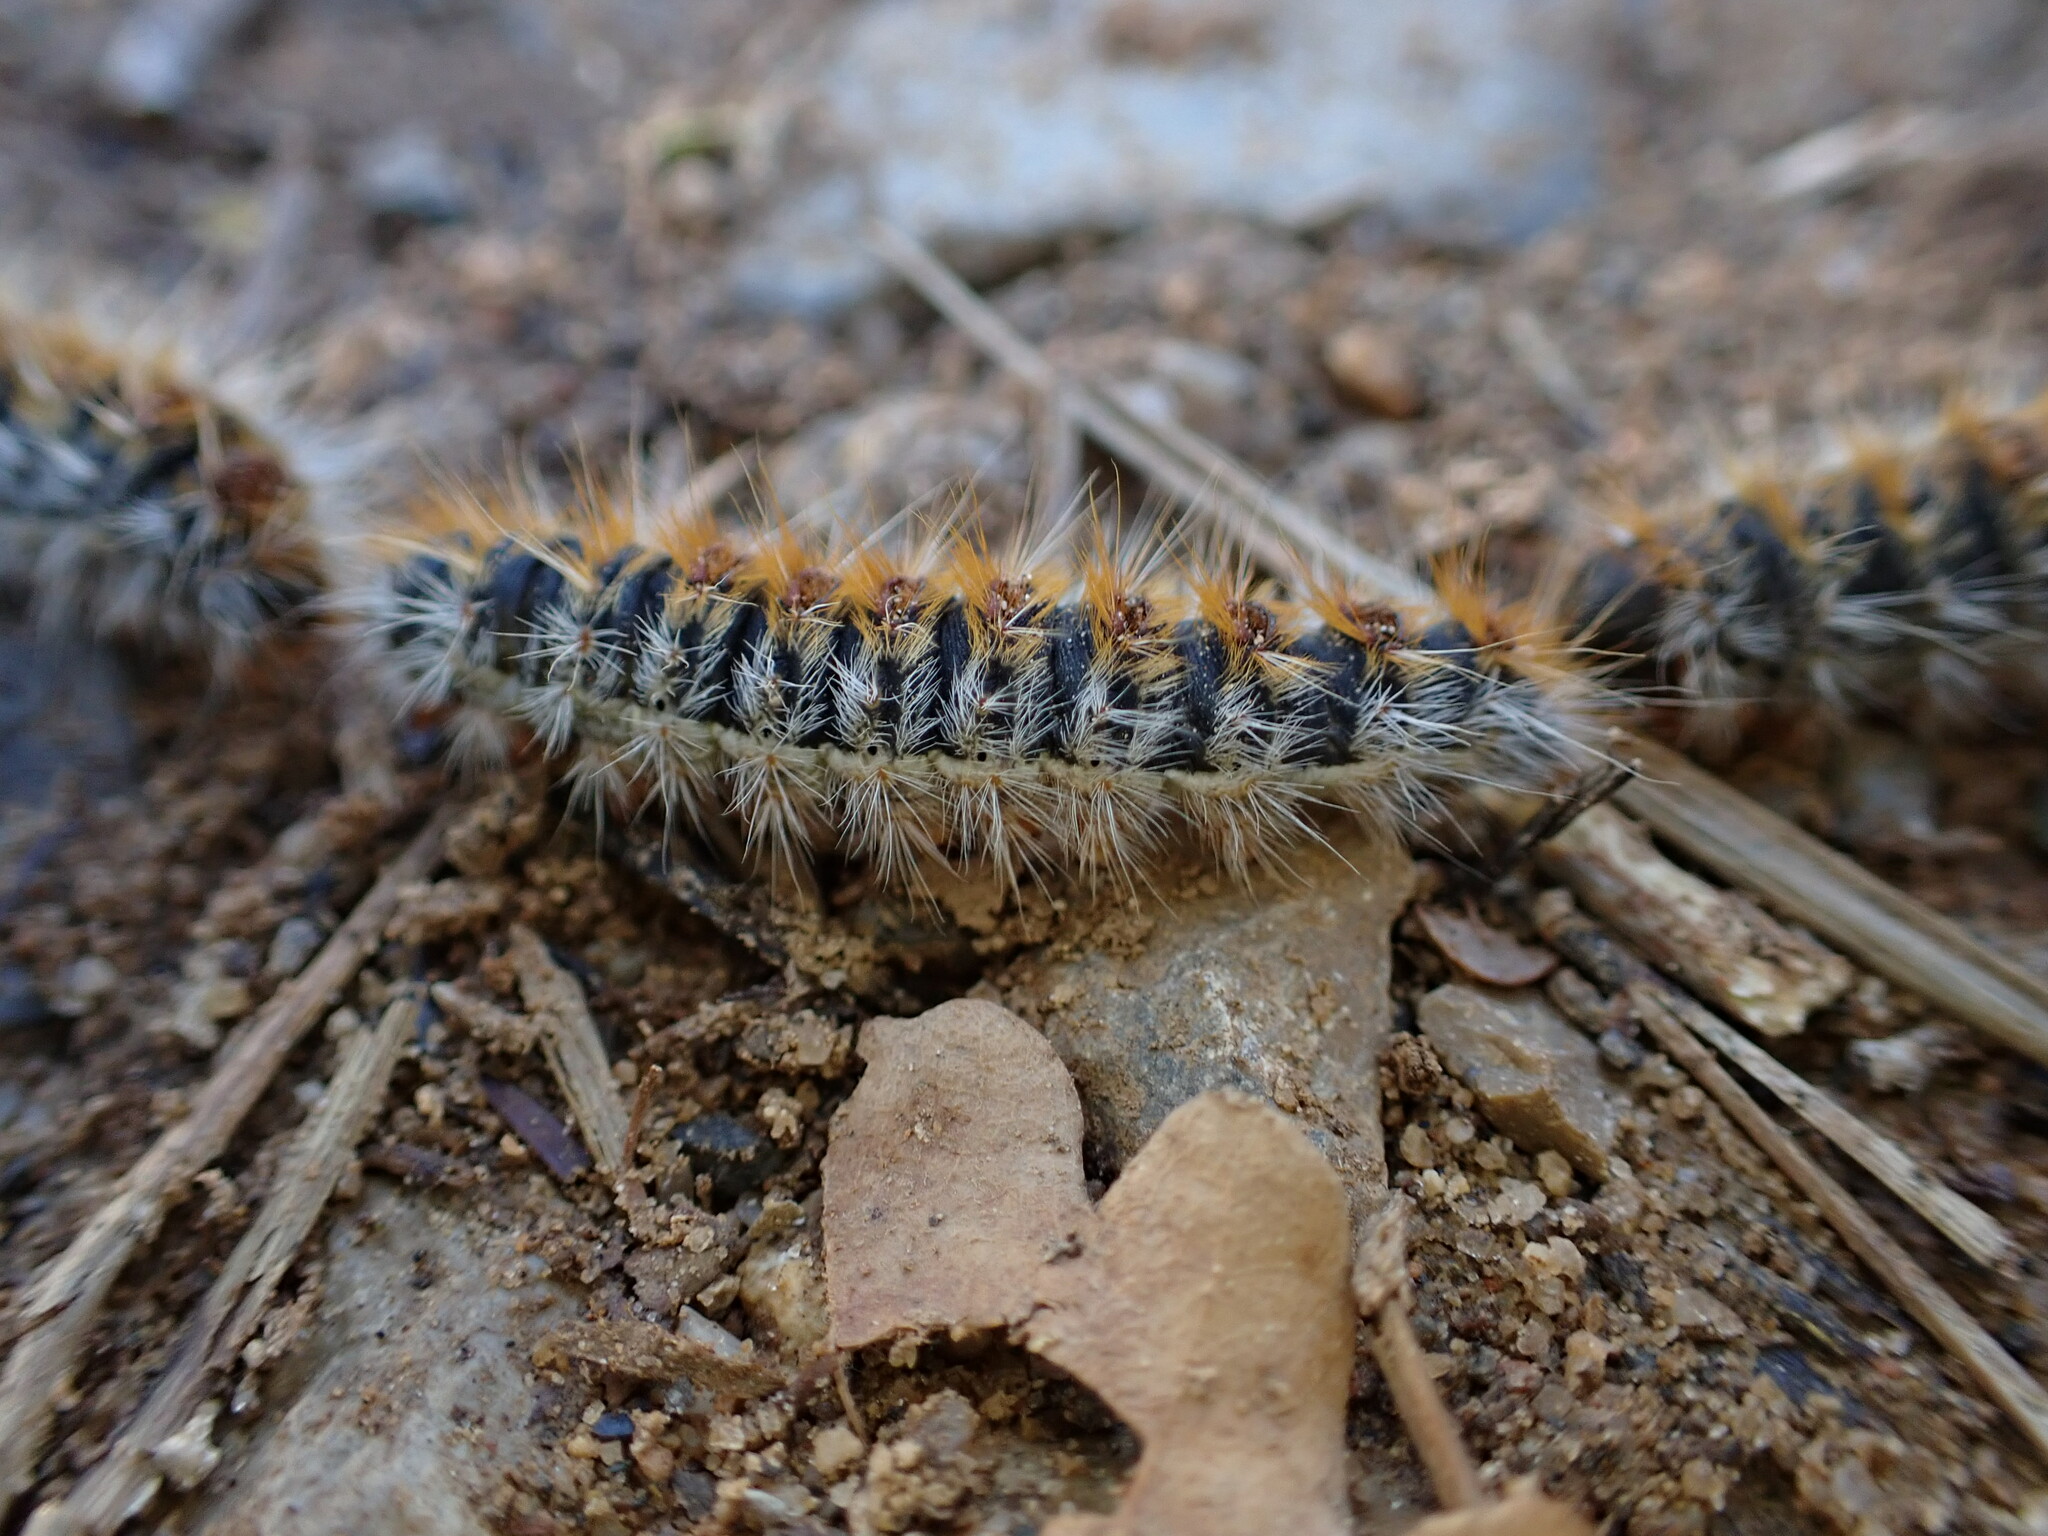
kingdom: Animalia
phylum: Arthropoda
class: Insecta
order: Lepidoptera
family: Notodontidae
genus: Thaumetopoea
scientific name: Thaumetopoea pityocampa
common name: Pine processionary
